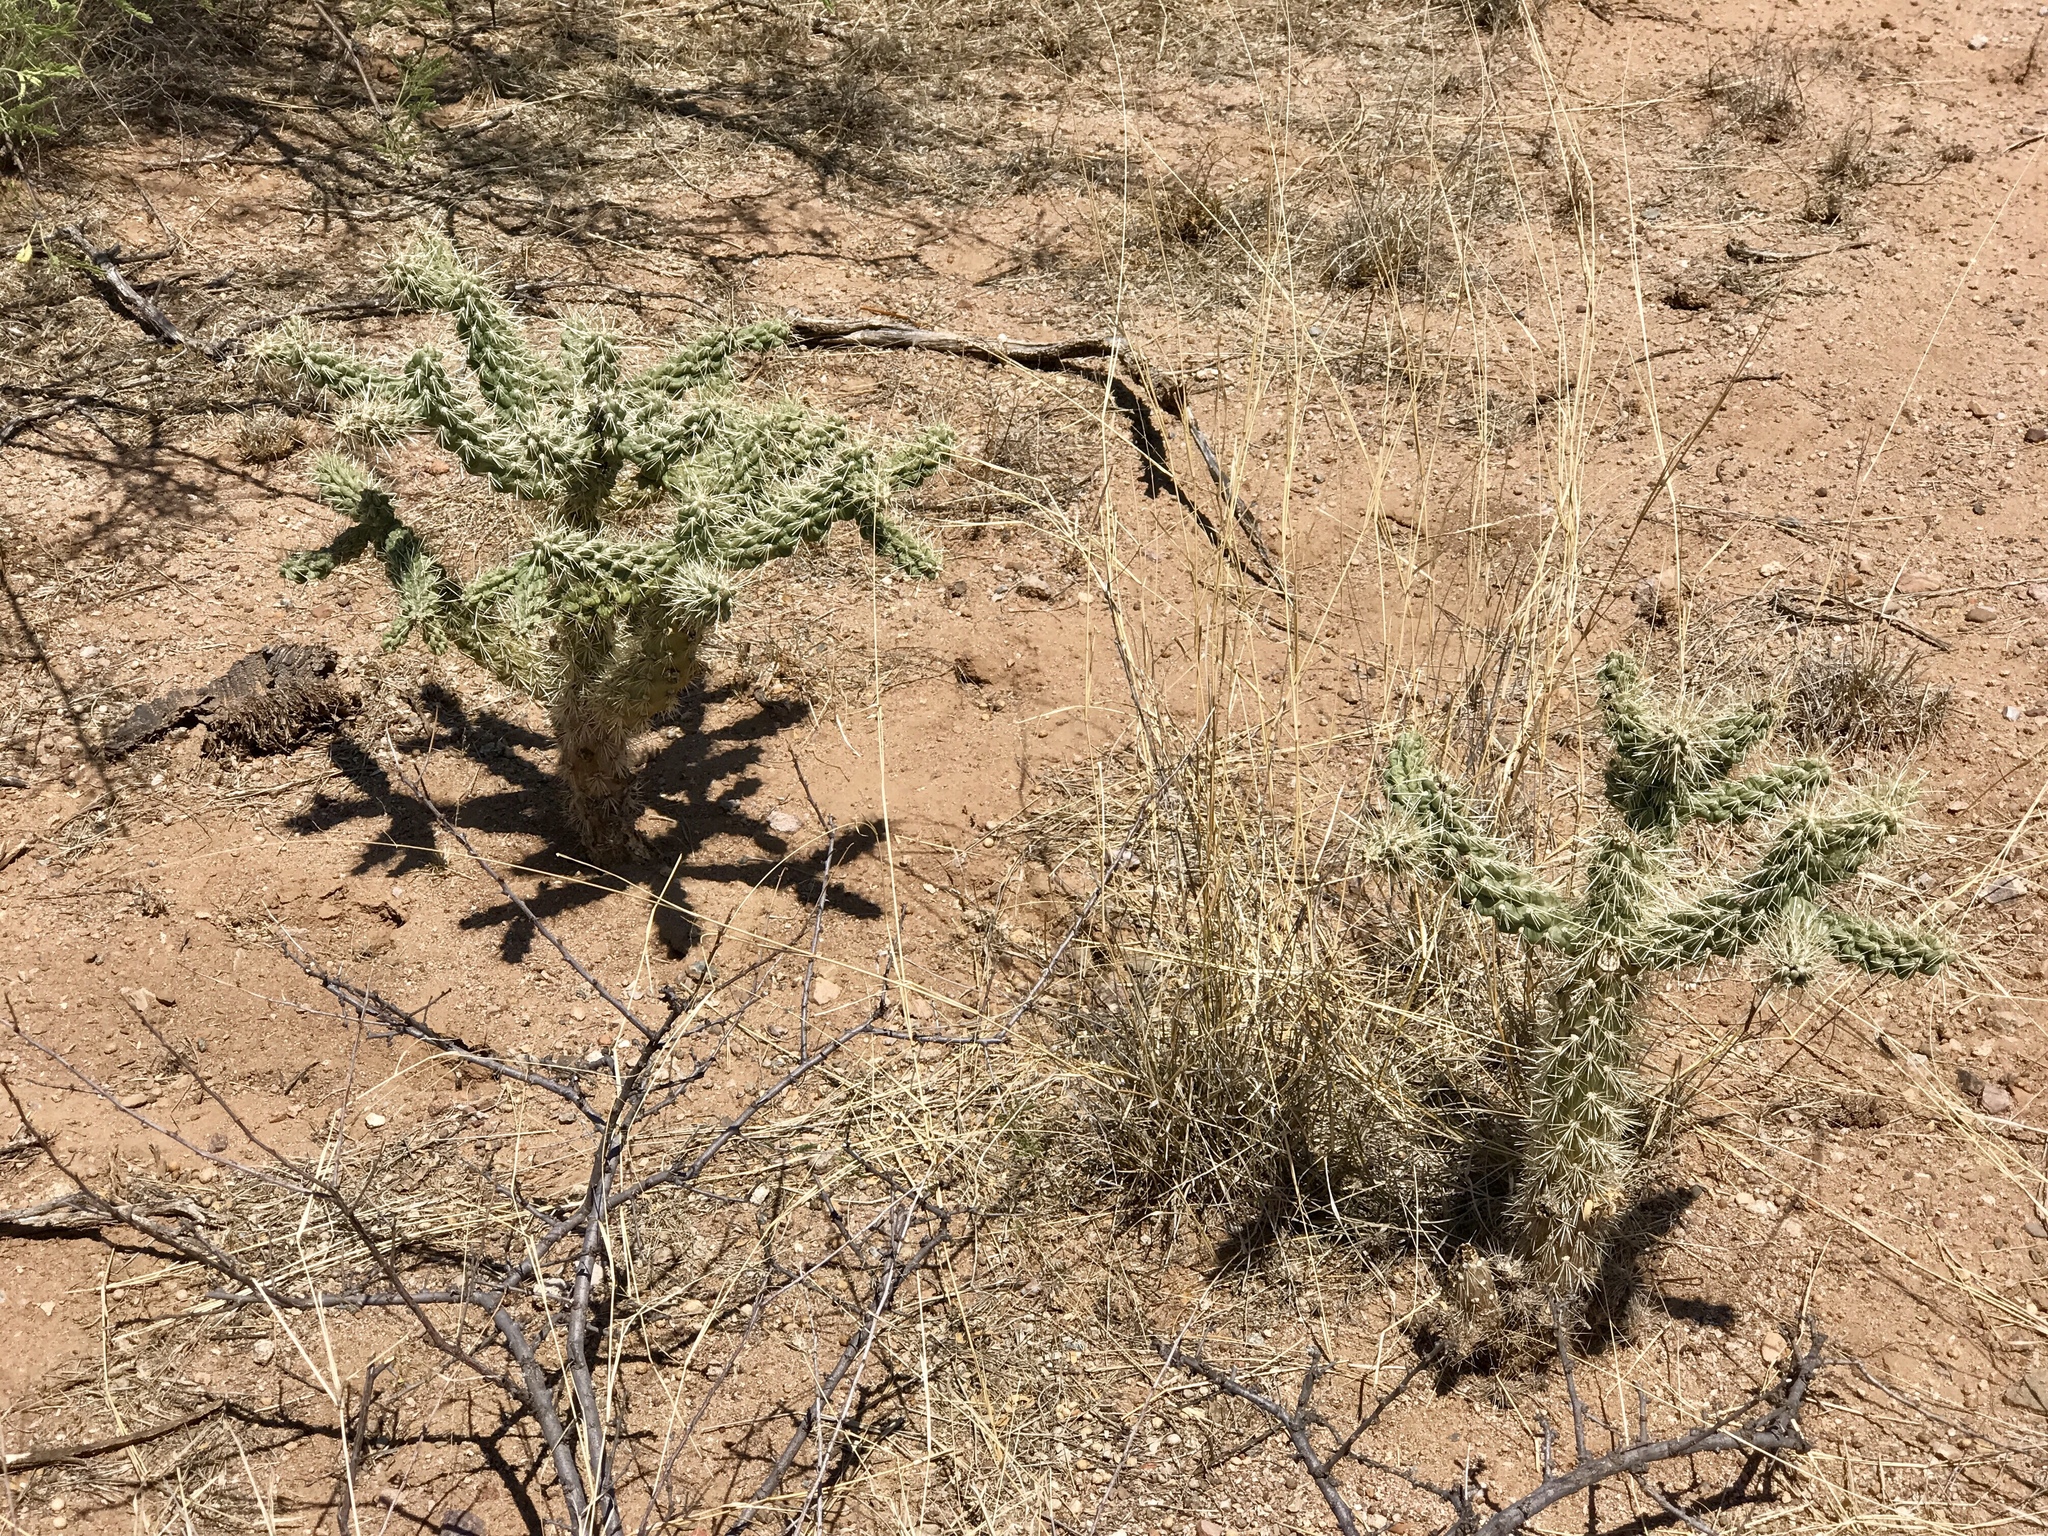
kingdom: Plantae
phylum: Tracheophyta
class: Magnoliopsida
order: Caryophyllales
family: Cactaceae
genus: Cylindropuntia
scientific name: Cylindropuntia fulgida
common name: Jumping cholla
